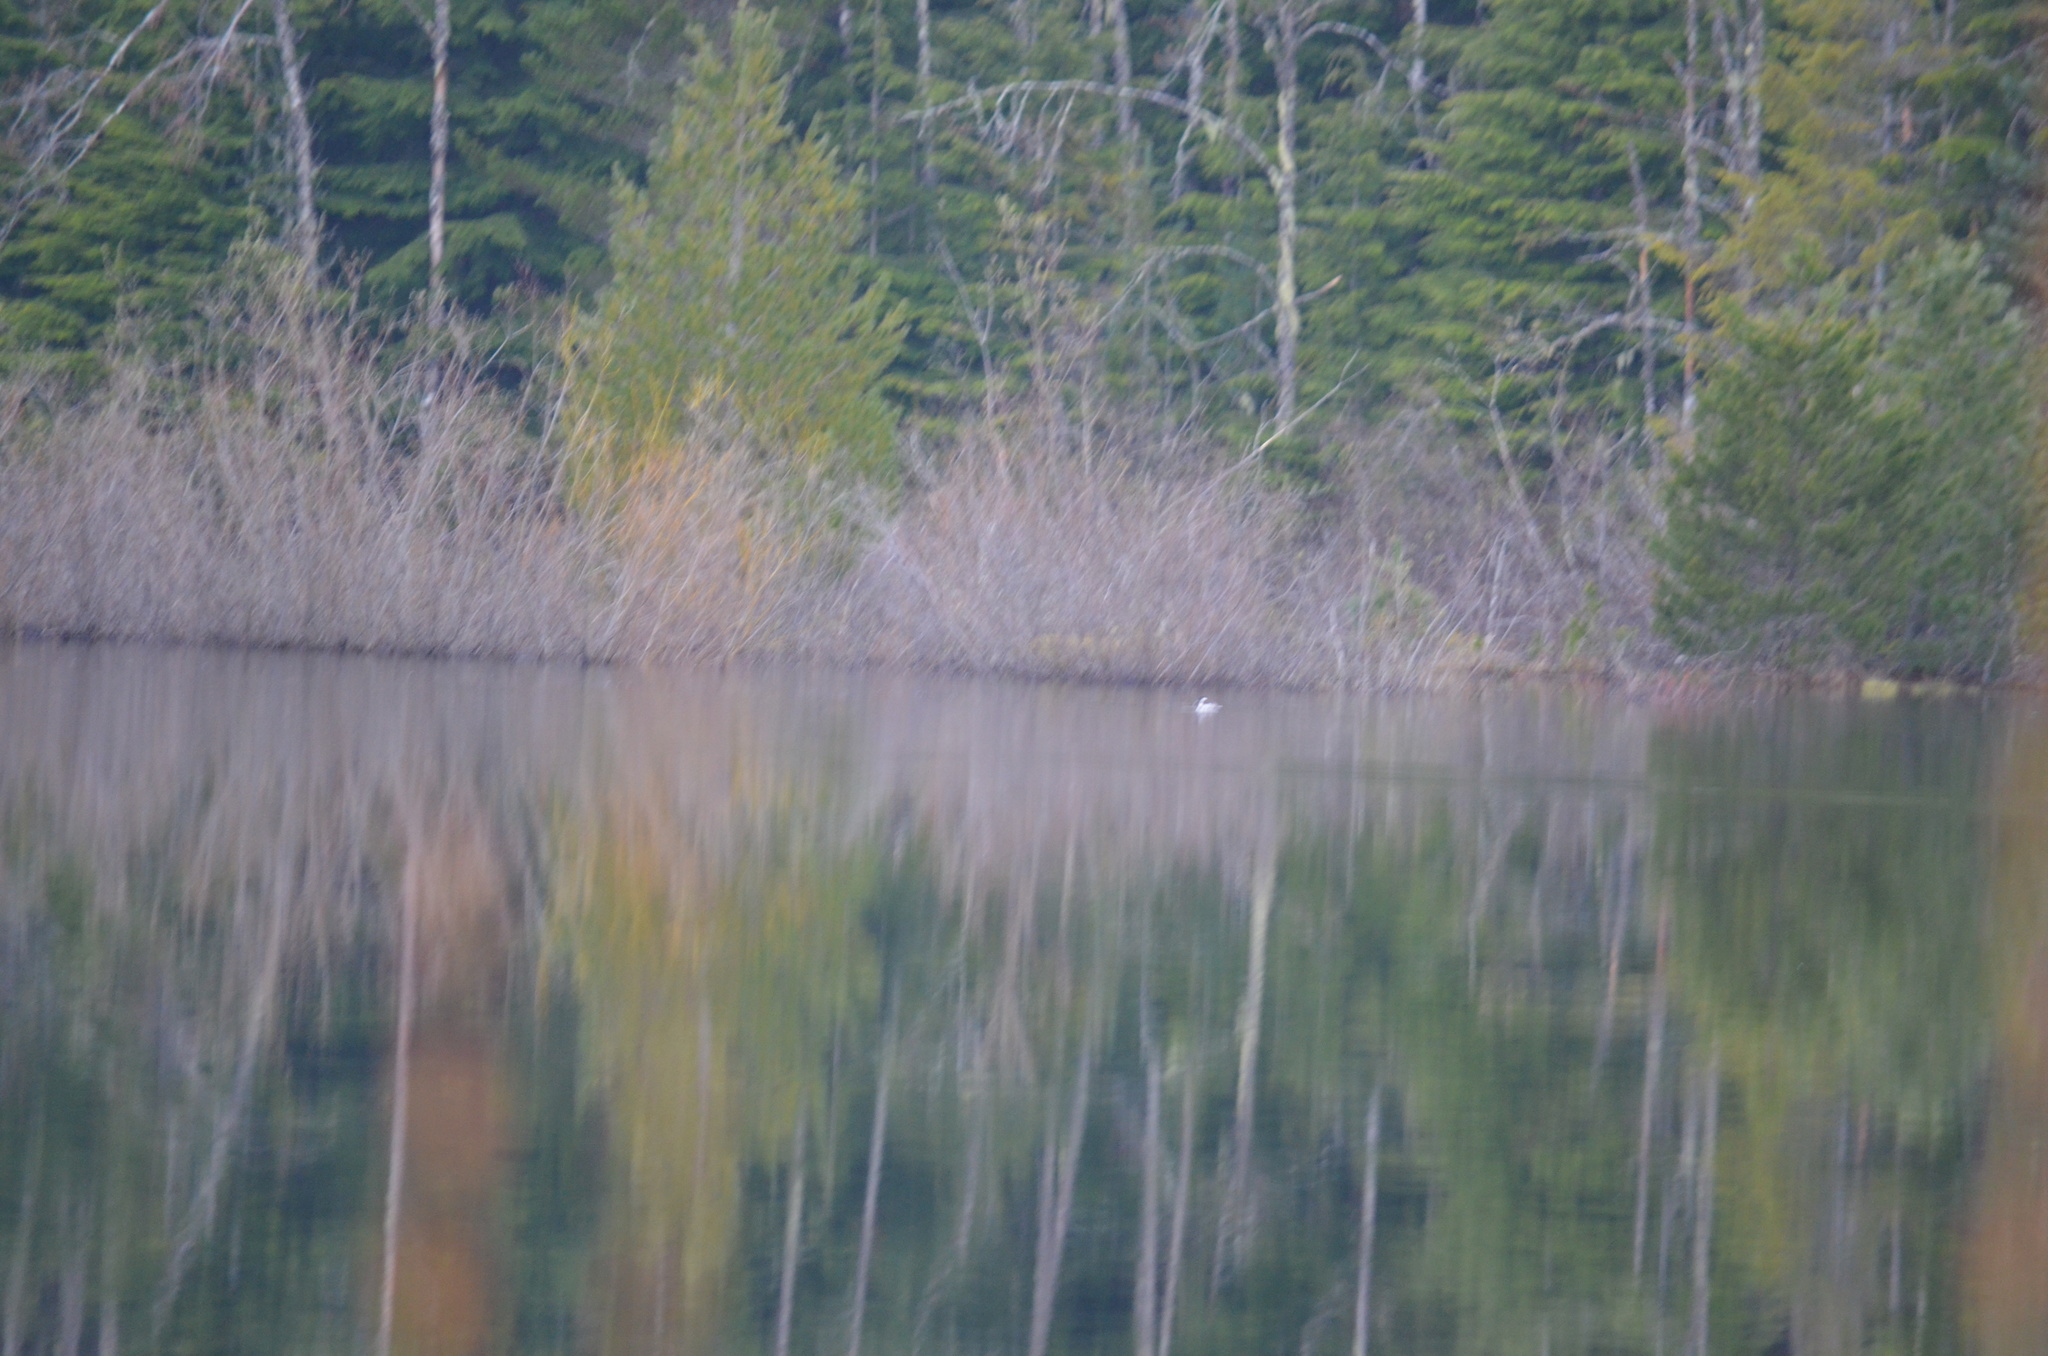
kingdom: Animalia
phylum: Chordata
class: Aves
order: Anseriformes
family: Anatidae
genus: Bucephala
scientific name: Bucephala albeola
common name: Bufflehead
